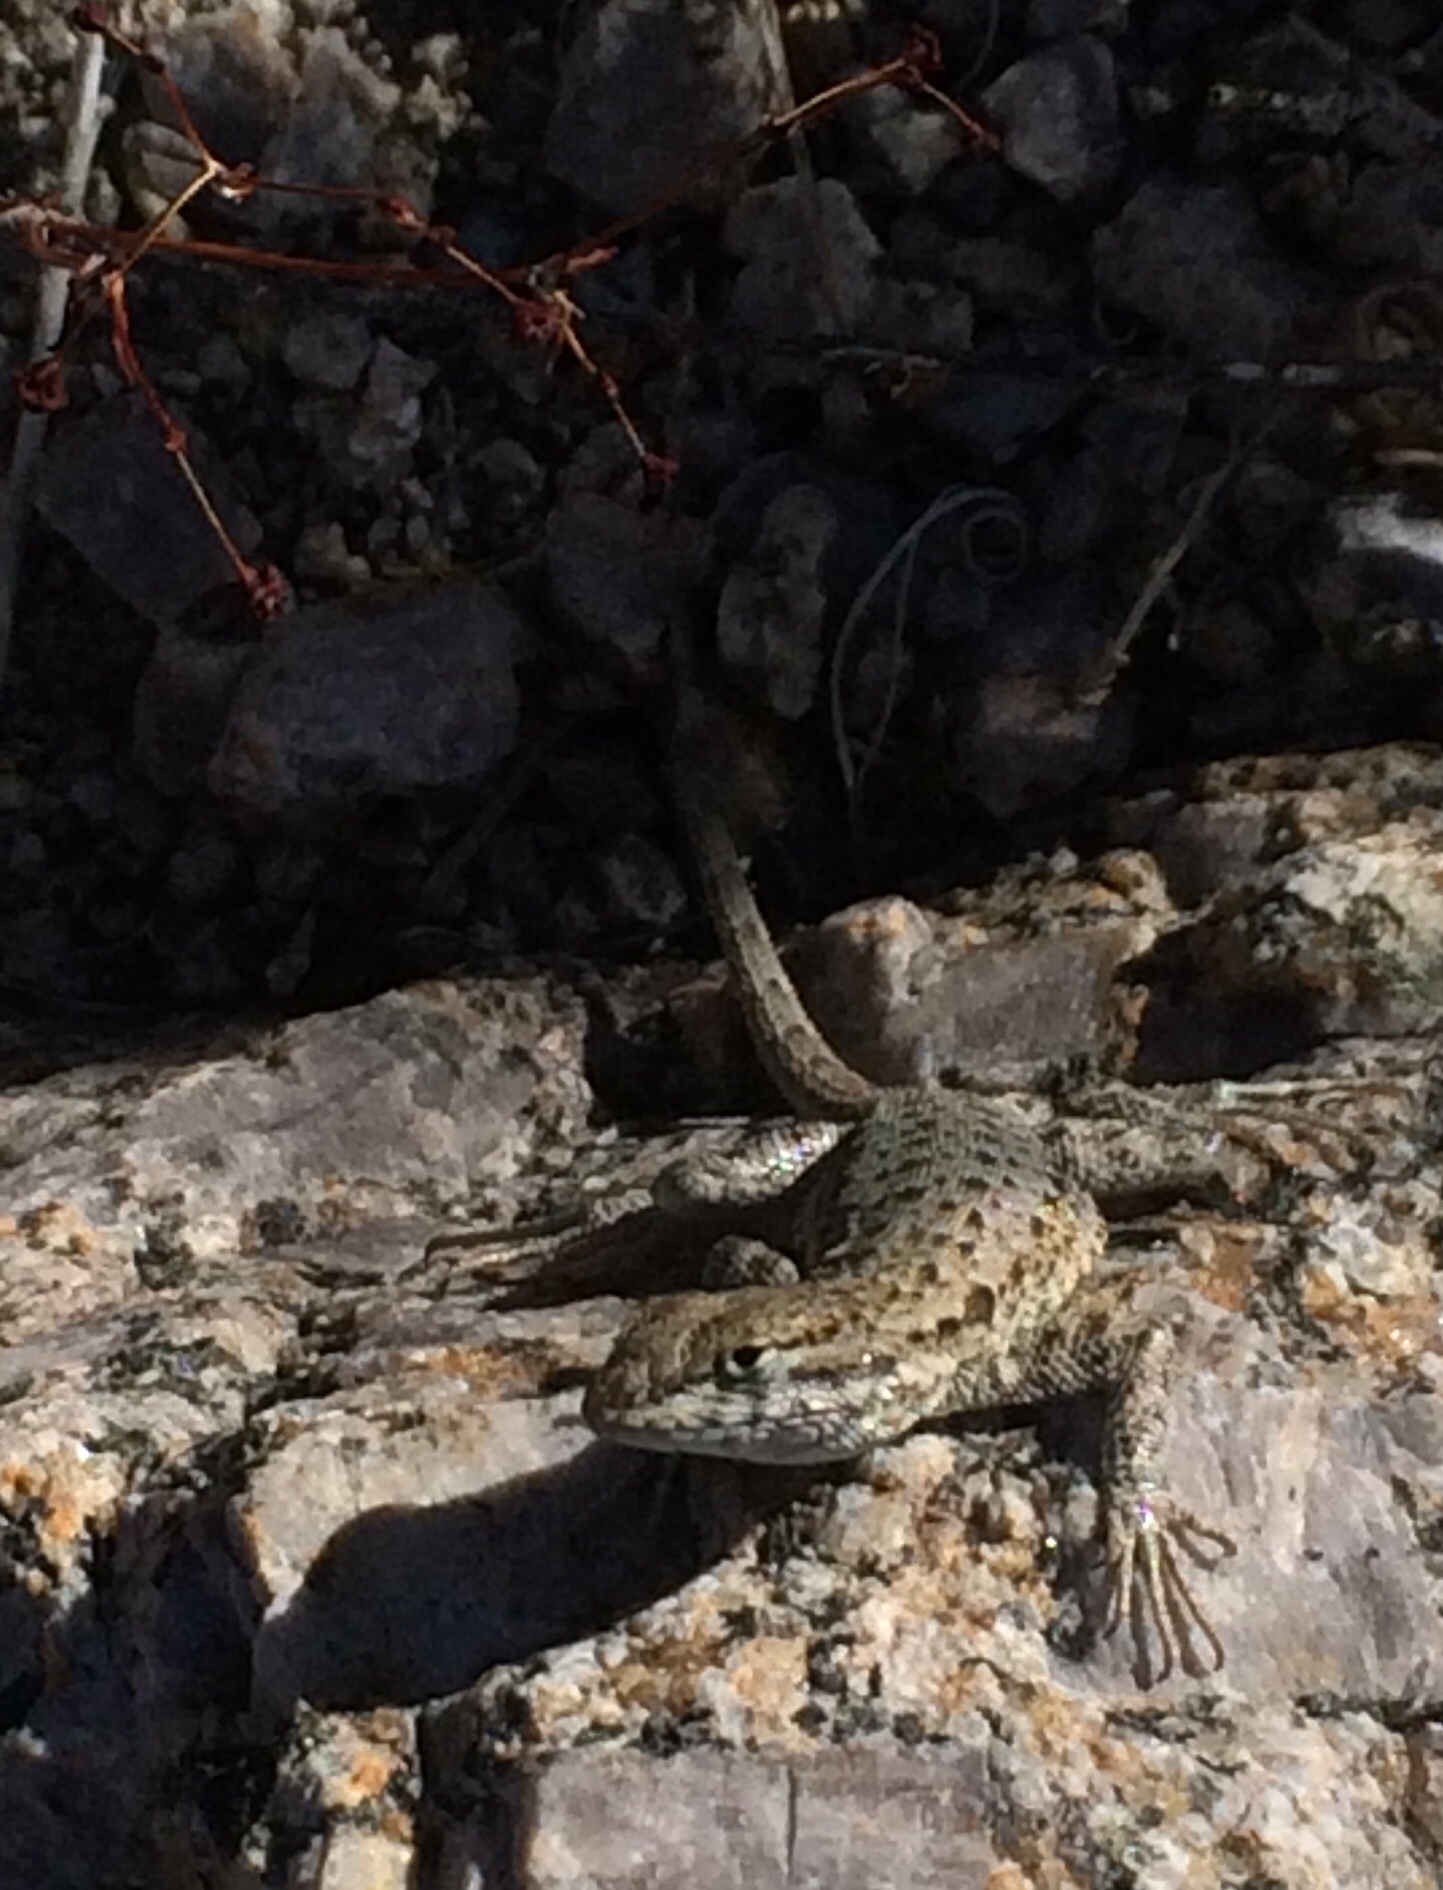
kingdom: Animalia
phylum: Chordata
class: Squamata
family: Phrynosomatidae
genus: Uta
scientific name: Uta stansburiana
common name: Side-blotched lizard
